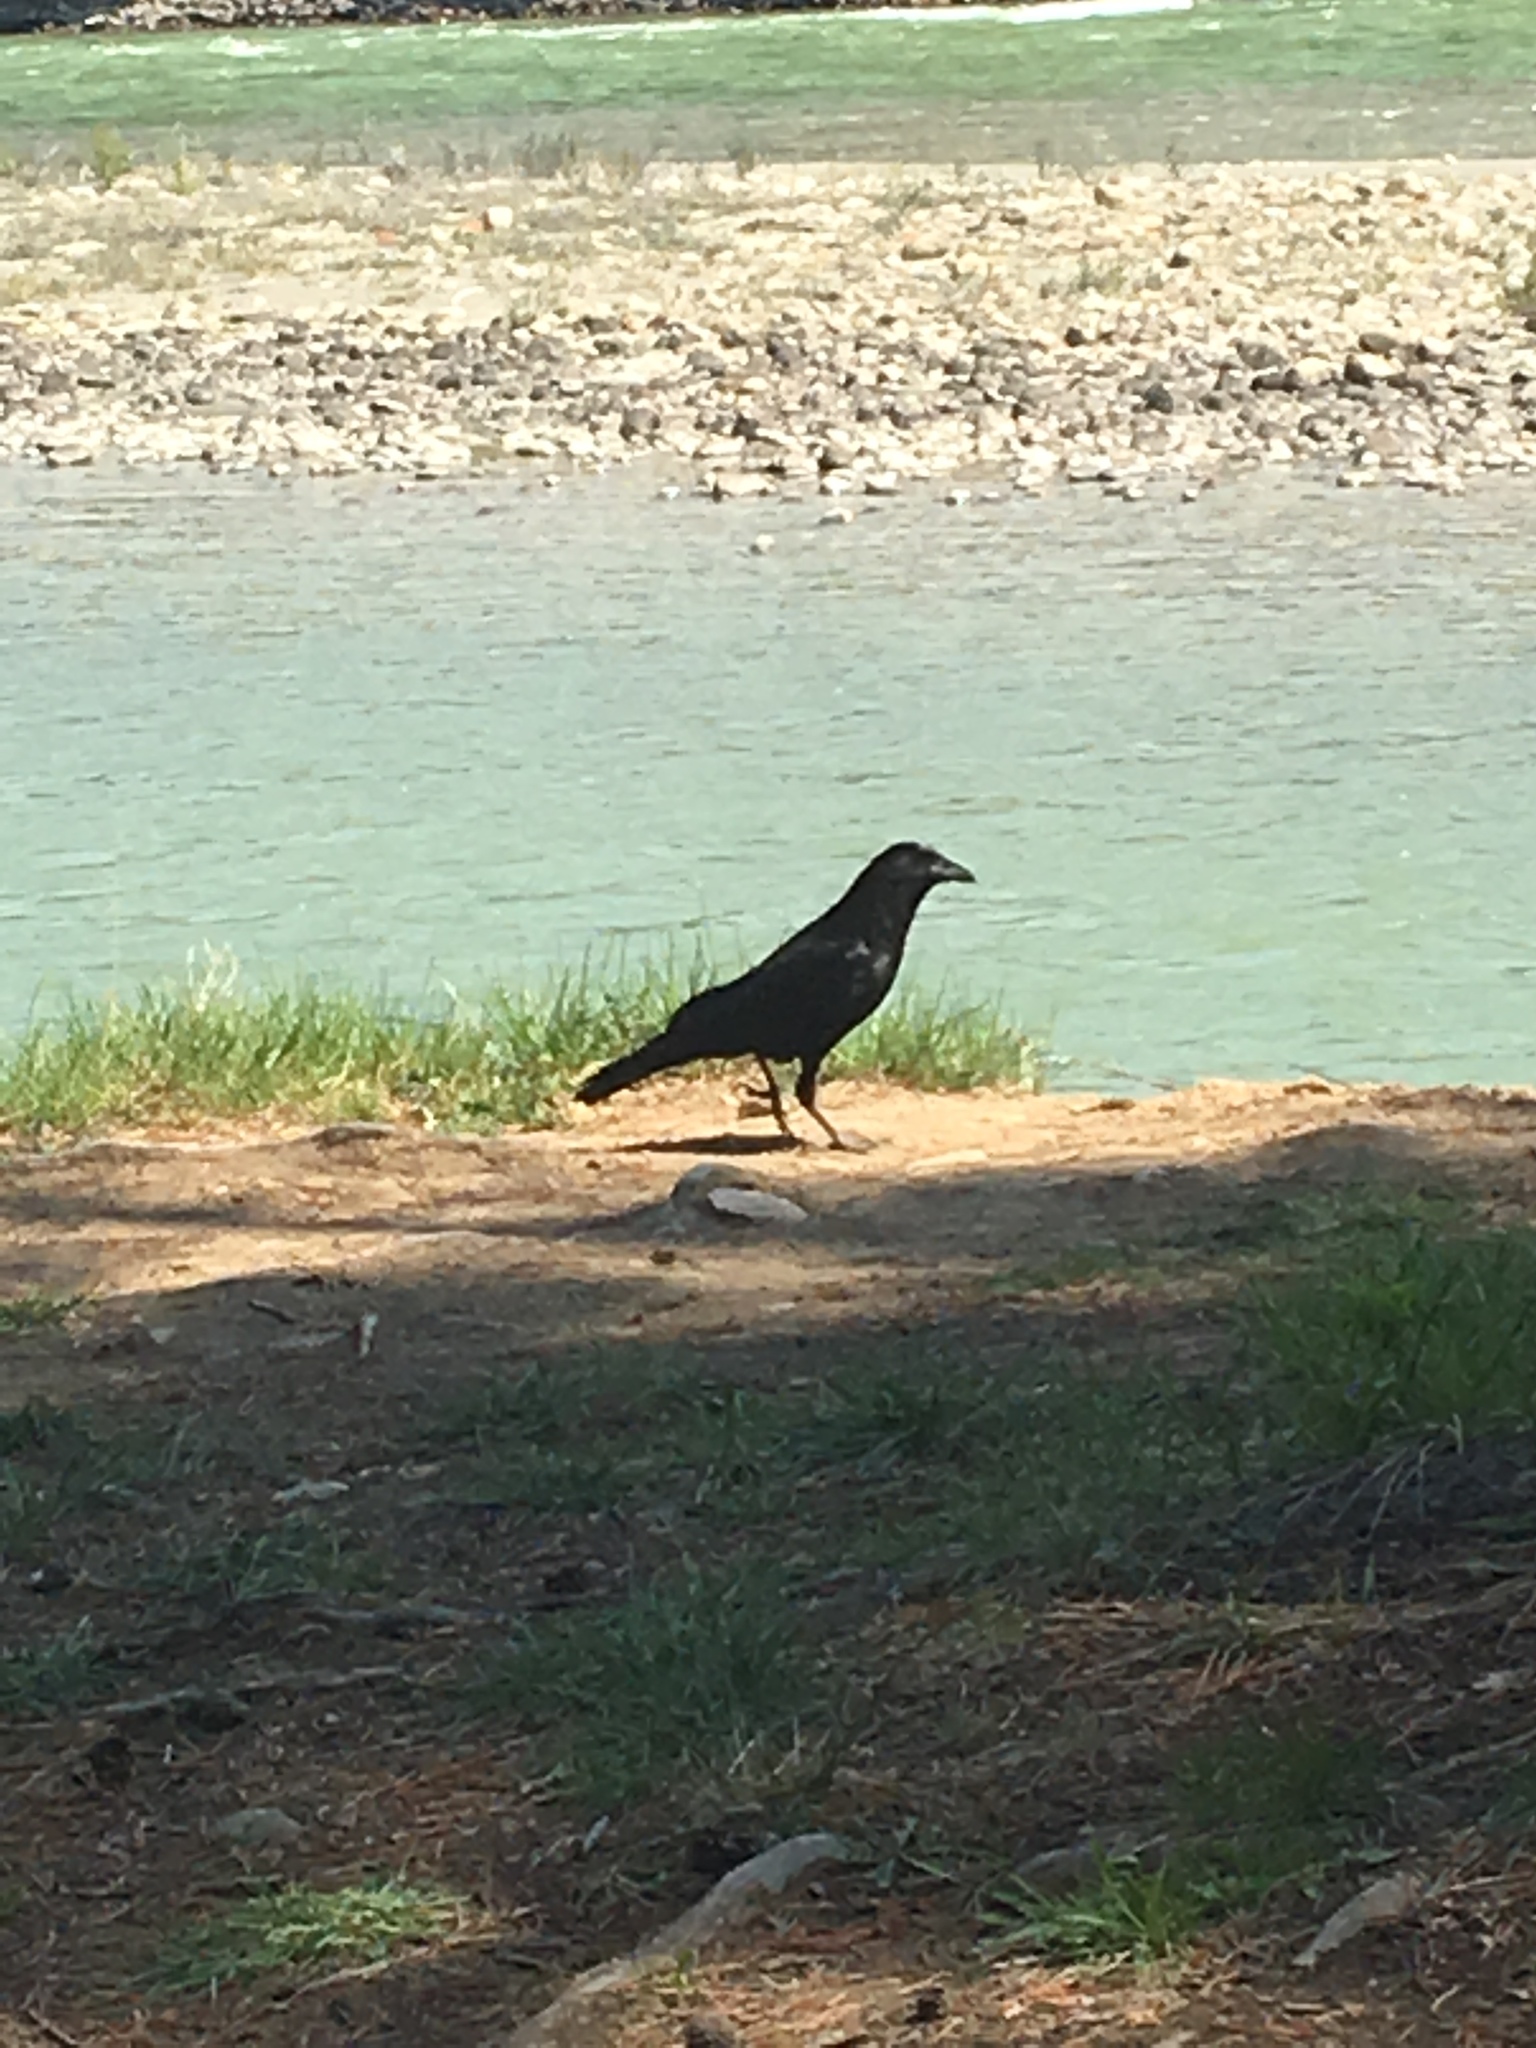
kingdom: Animalia
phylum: Chordata
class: Aves
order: Passeriformes
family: Corvidae
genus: Corvus
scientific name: Corvus brachyrhynchos
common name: American crow
